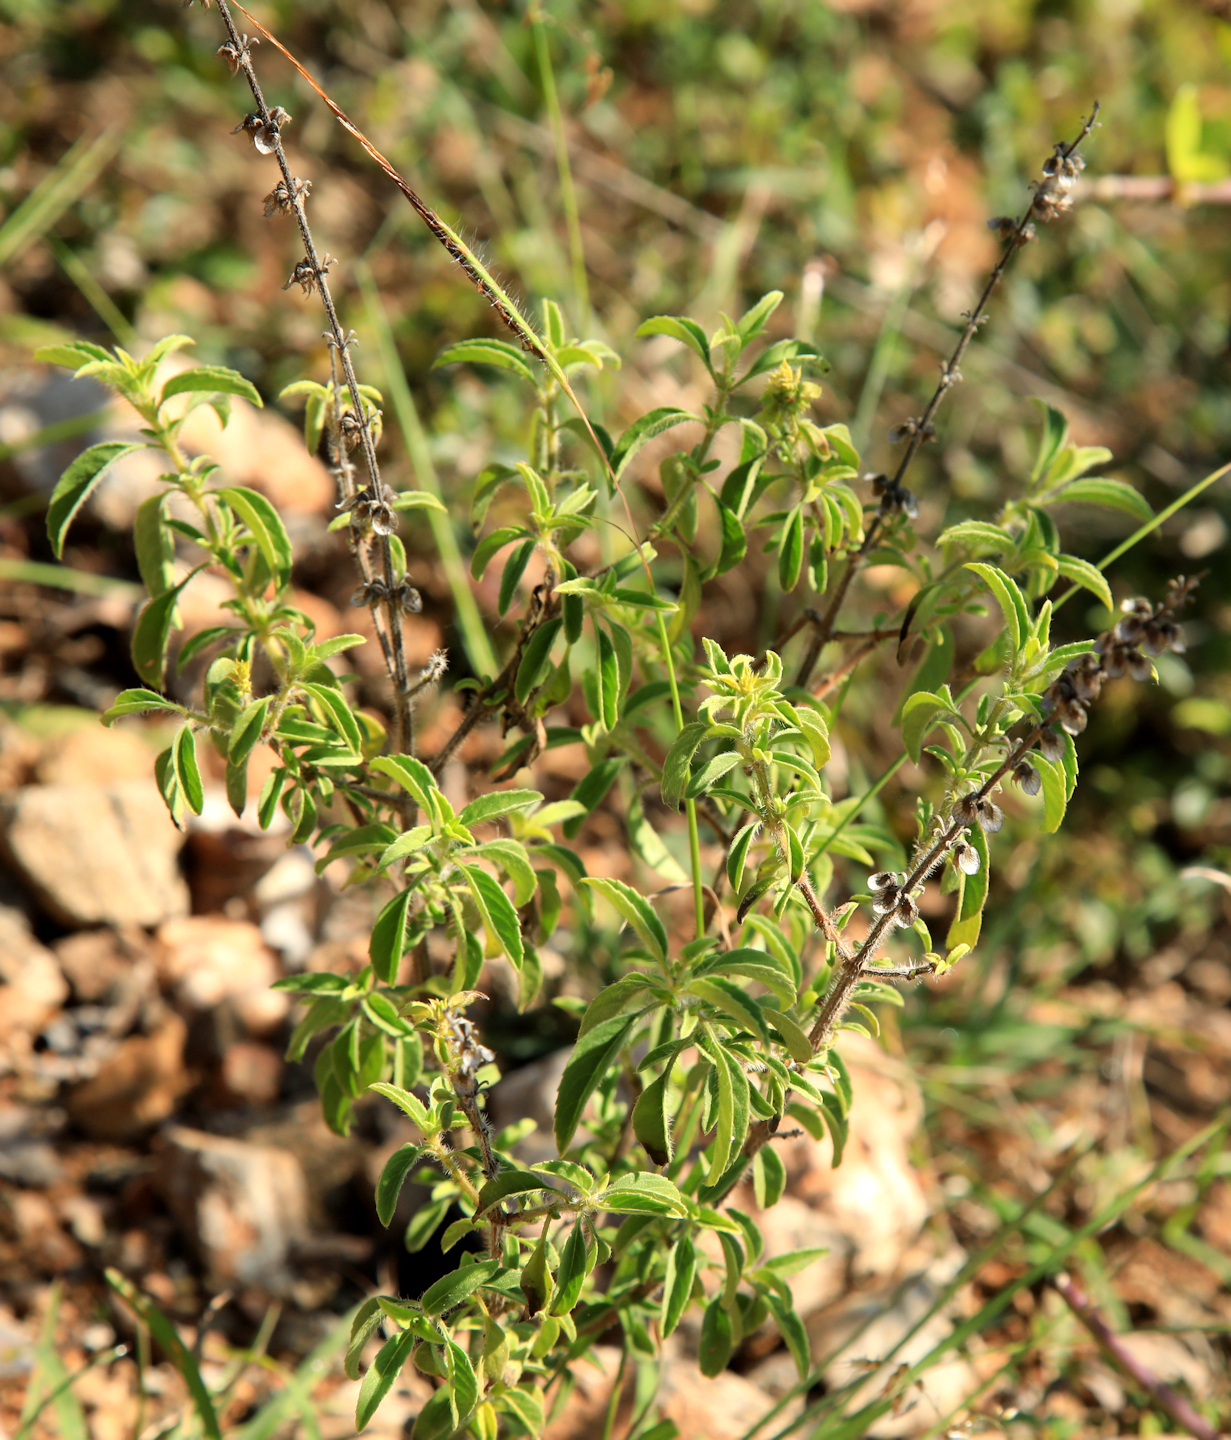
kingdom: Plantae
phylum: Tracheophyta
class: Magnoliopsida
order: Lamiales
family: Lamiaceae
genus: Ocimum
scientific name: Ocimum americanum
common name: American basil
